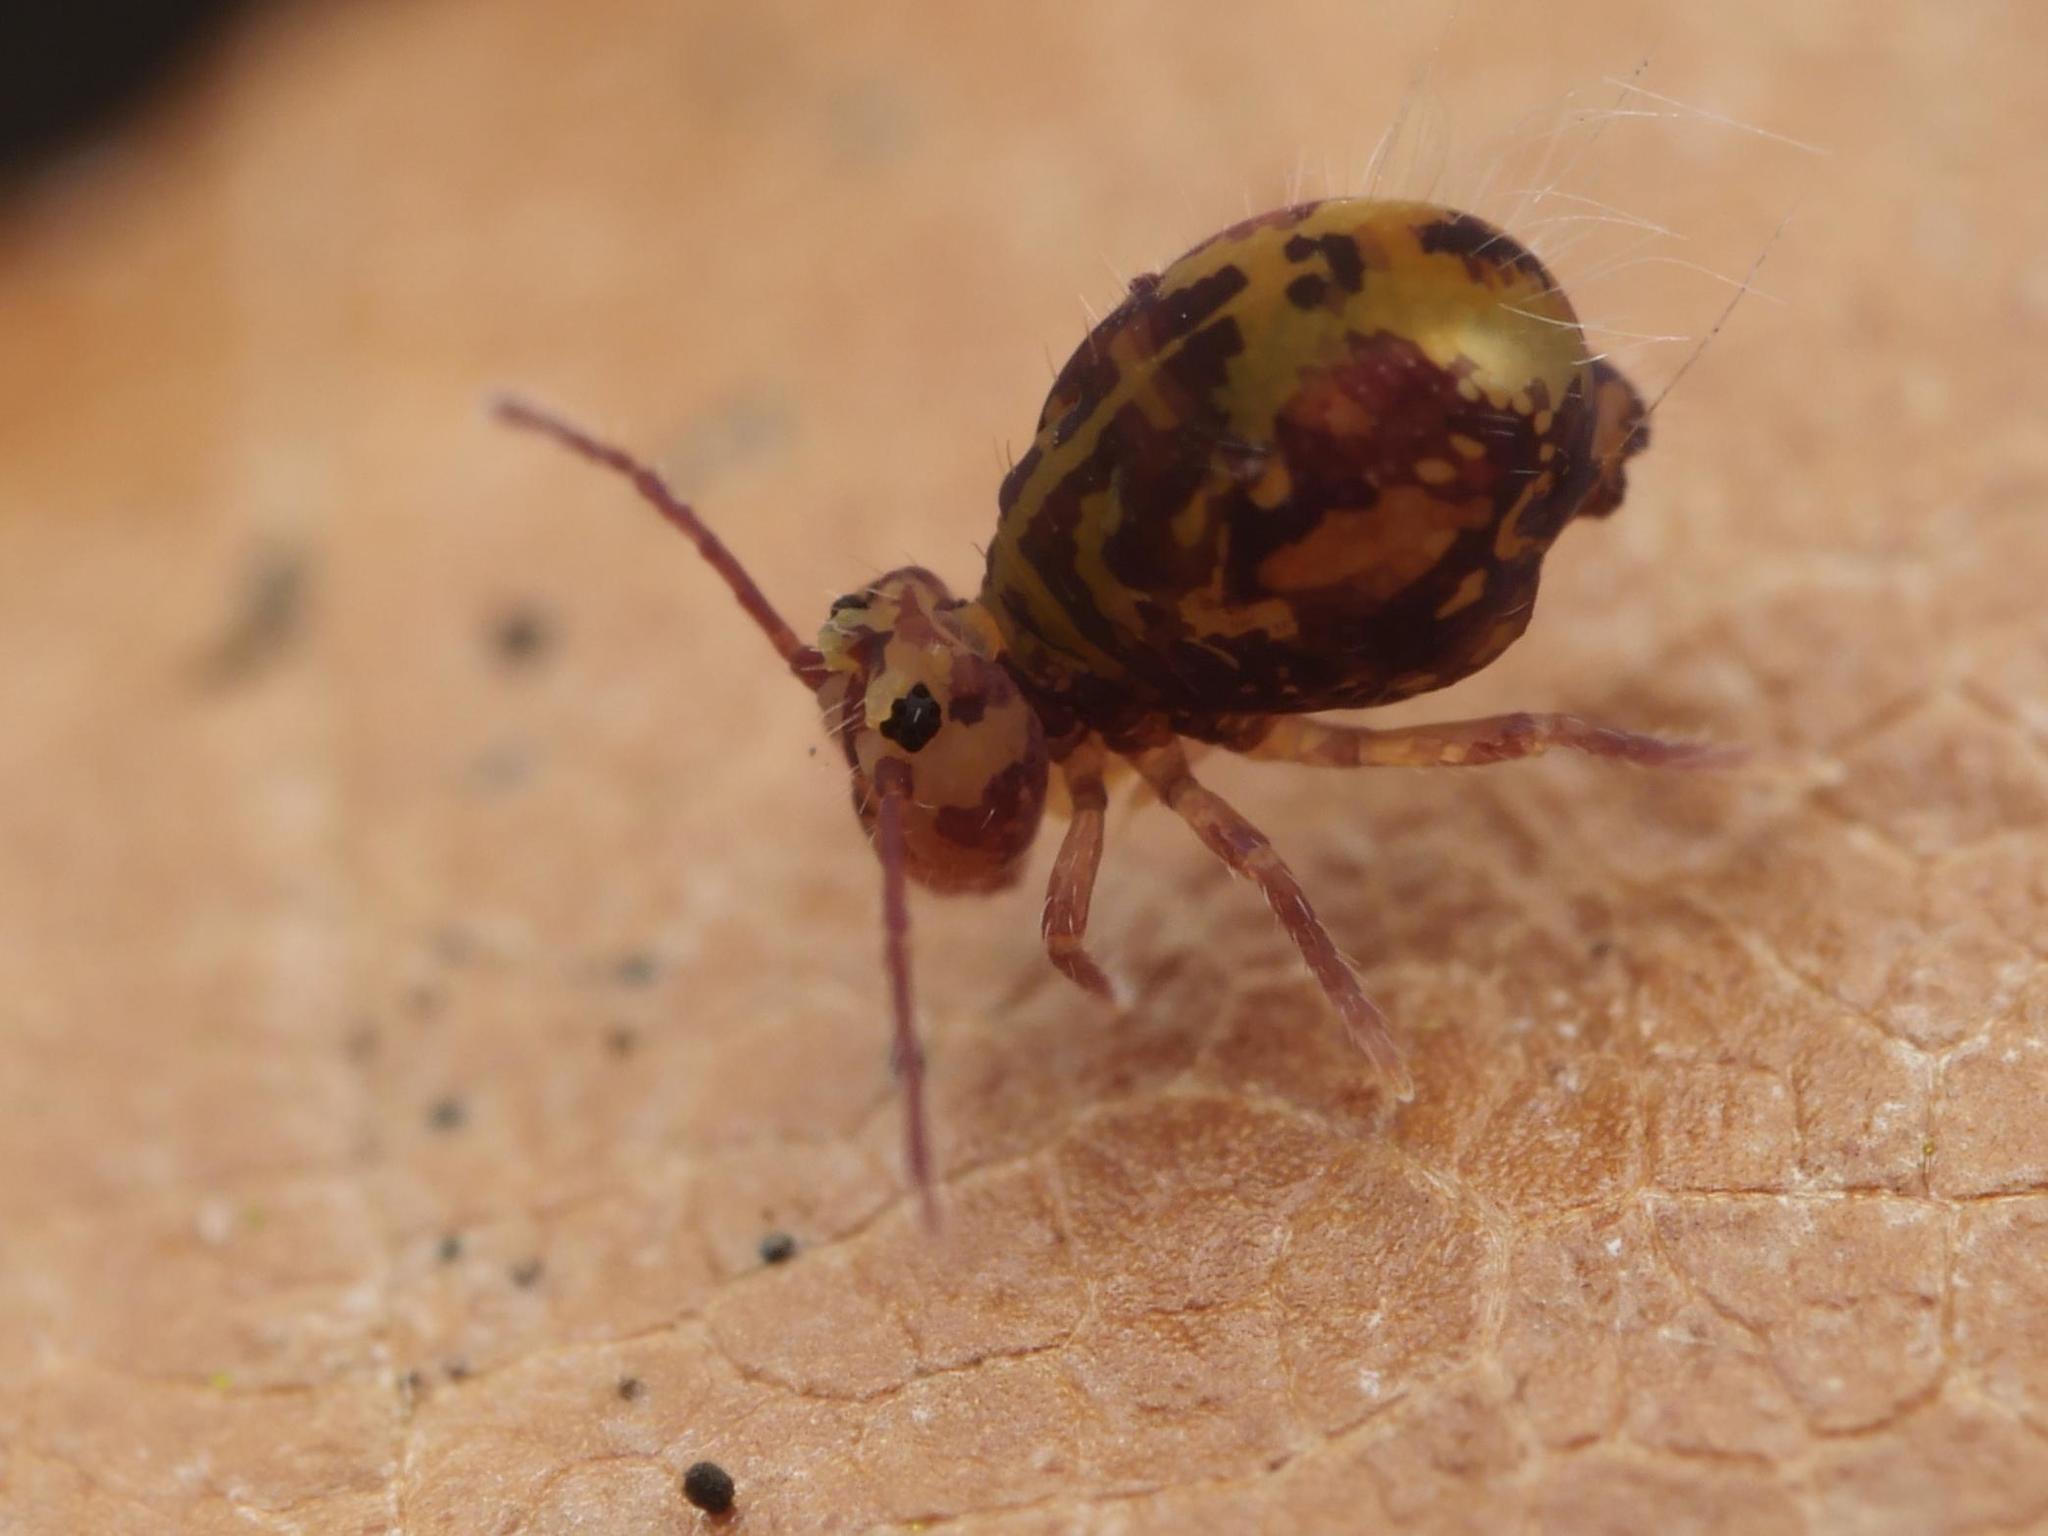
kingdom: Animalia
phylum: Arthropoda
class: Collembola
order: Symphypleona
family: Dicyrtomidae
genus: Dicyrtomina
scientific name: Dicyrtomina ornata
